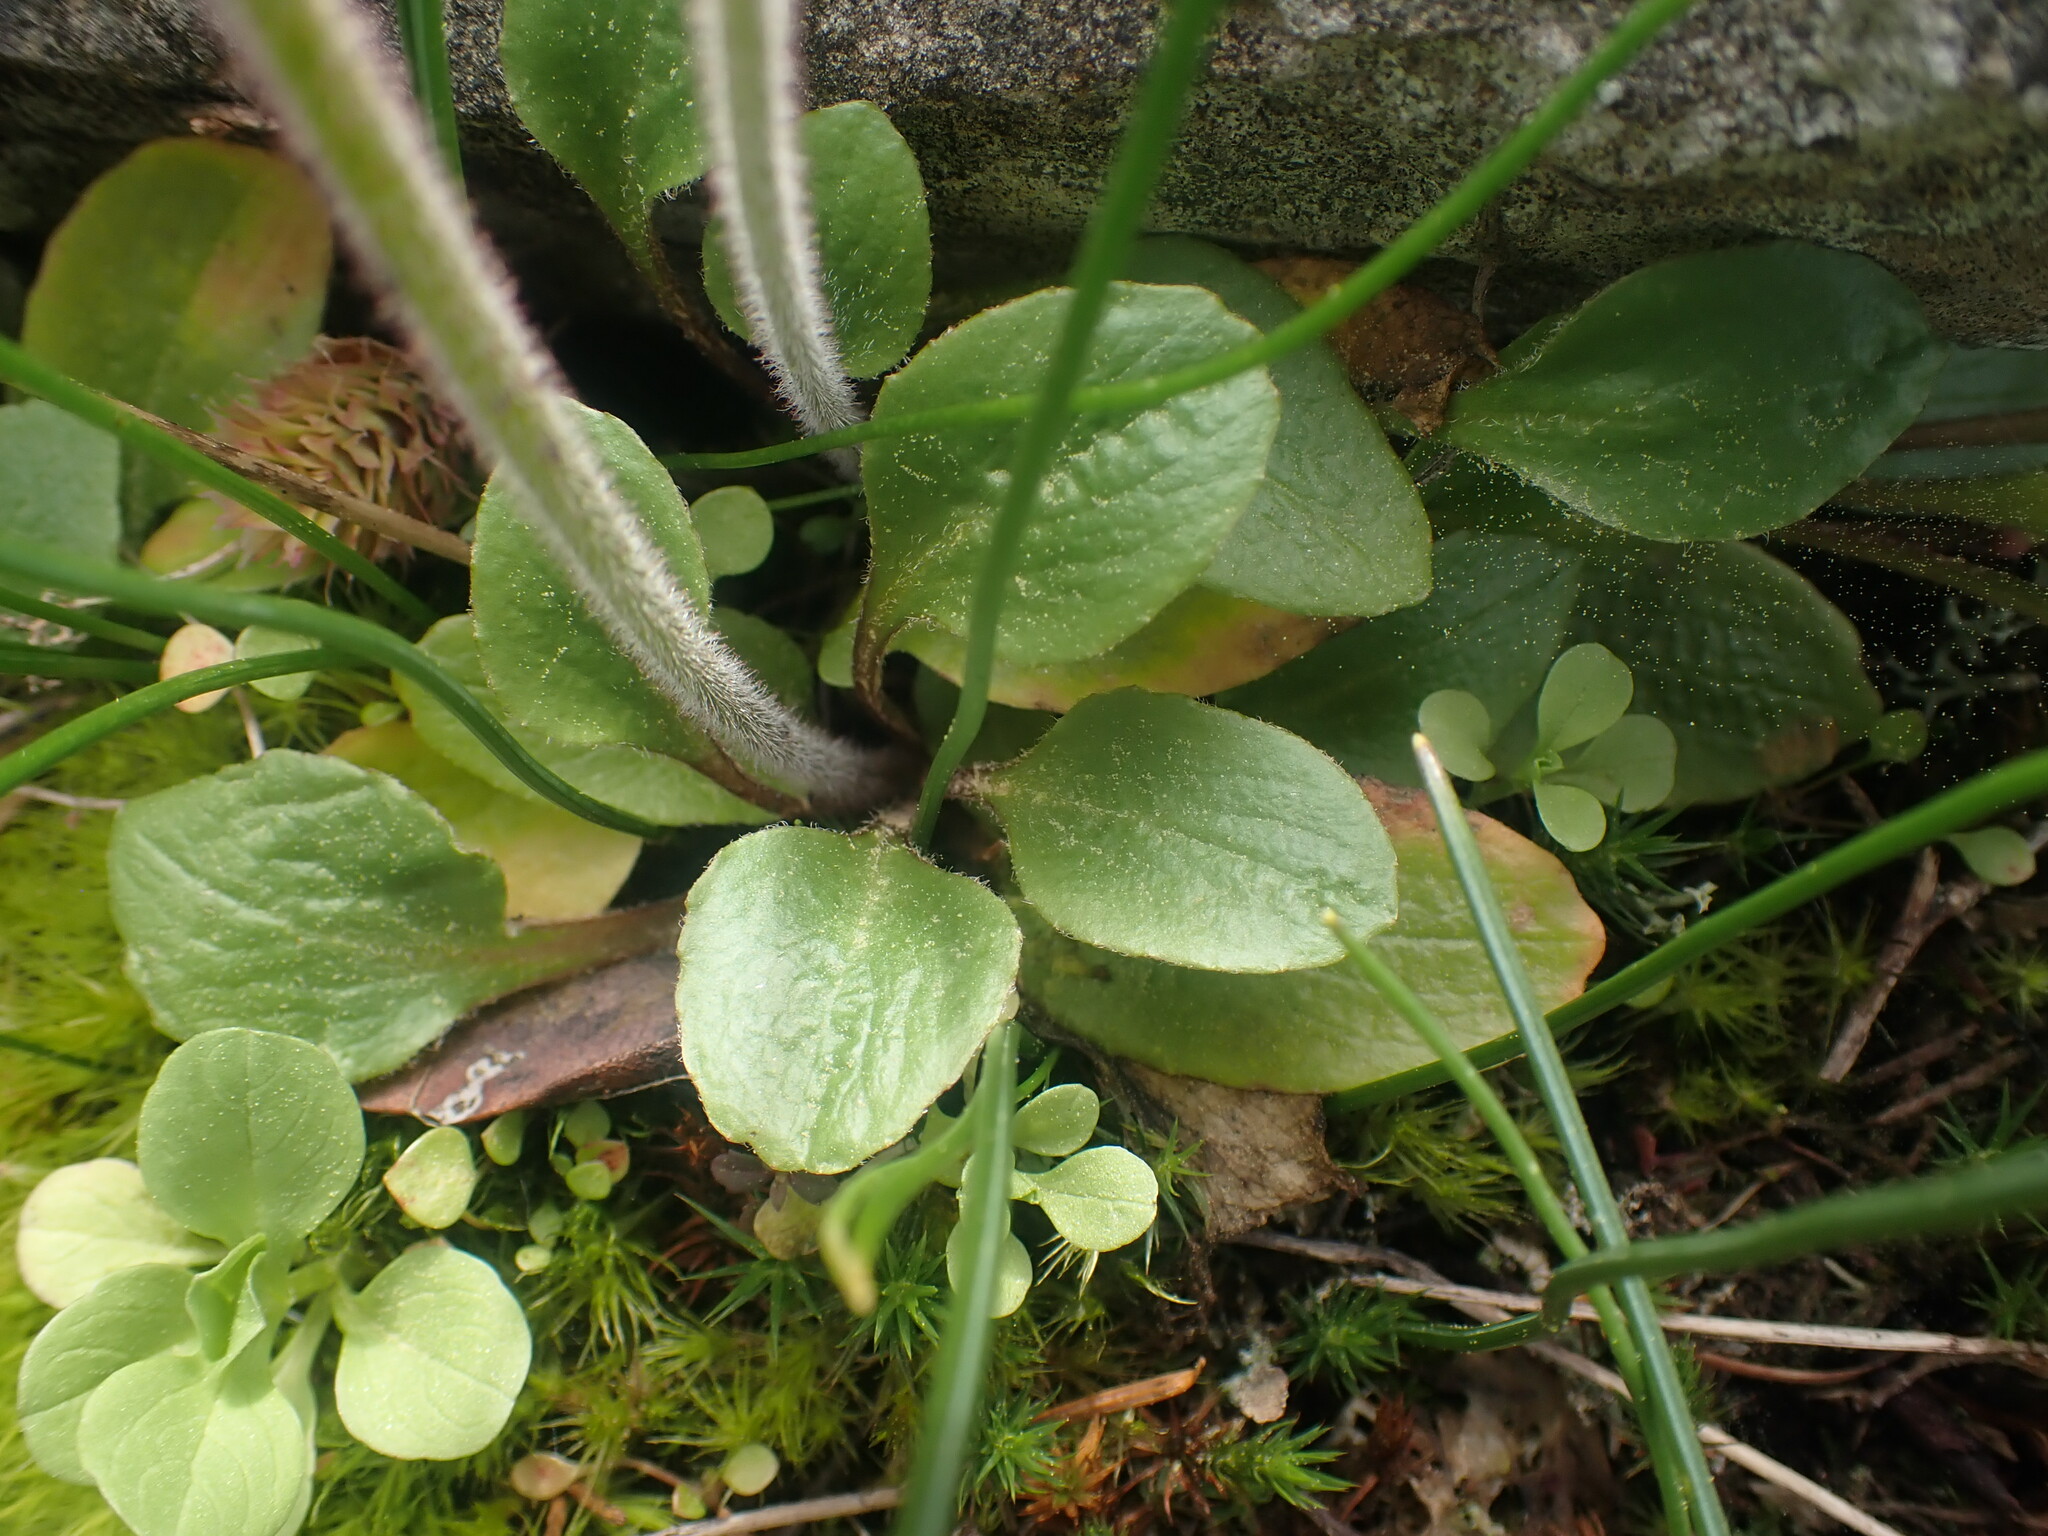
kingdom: Plantae
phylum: Tracheophyta
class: Magnoliopsida
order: Saxifragales
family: Saxifragaceae
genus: Micranthes
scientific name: Micranthes integrifolia
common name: Wholeleaf saxifrage
